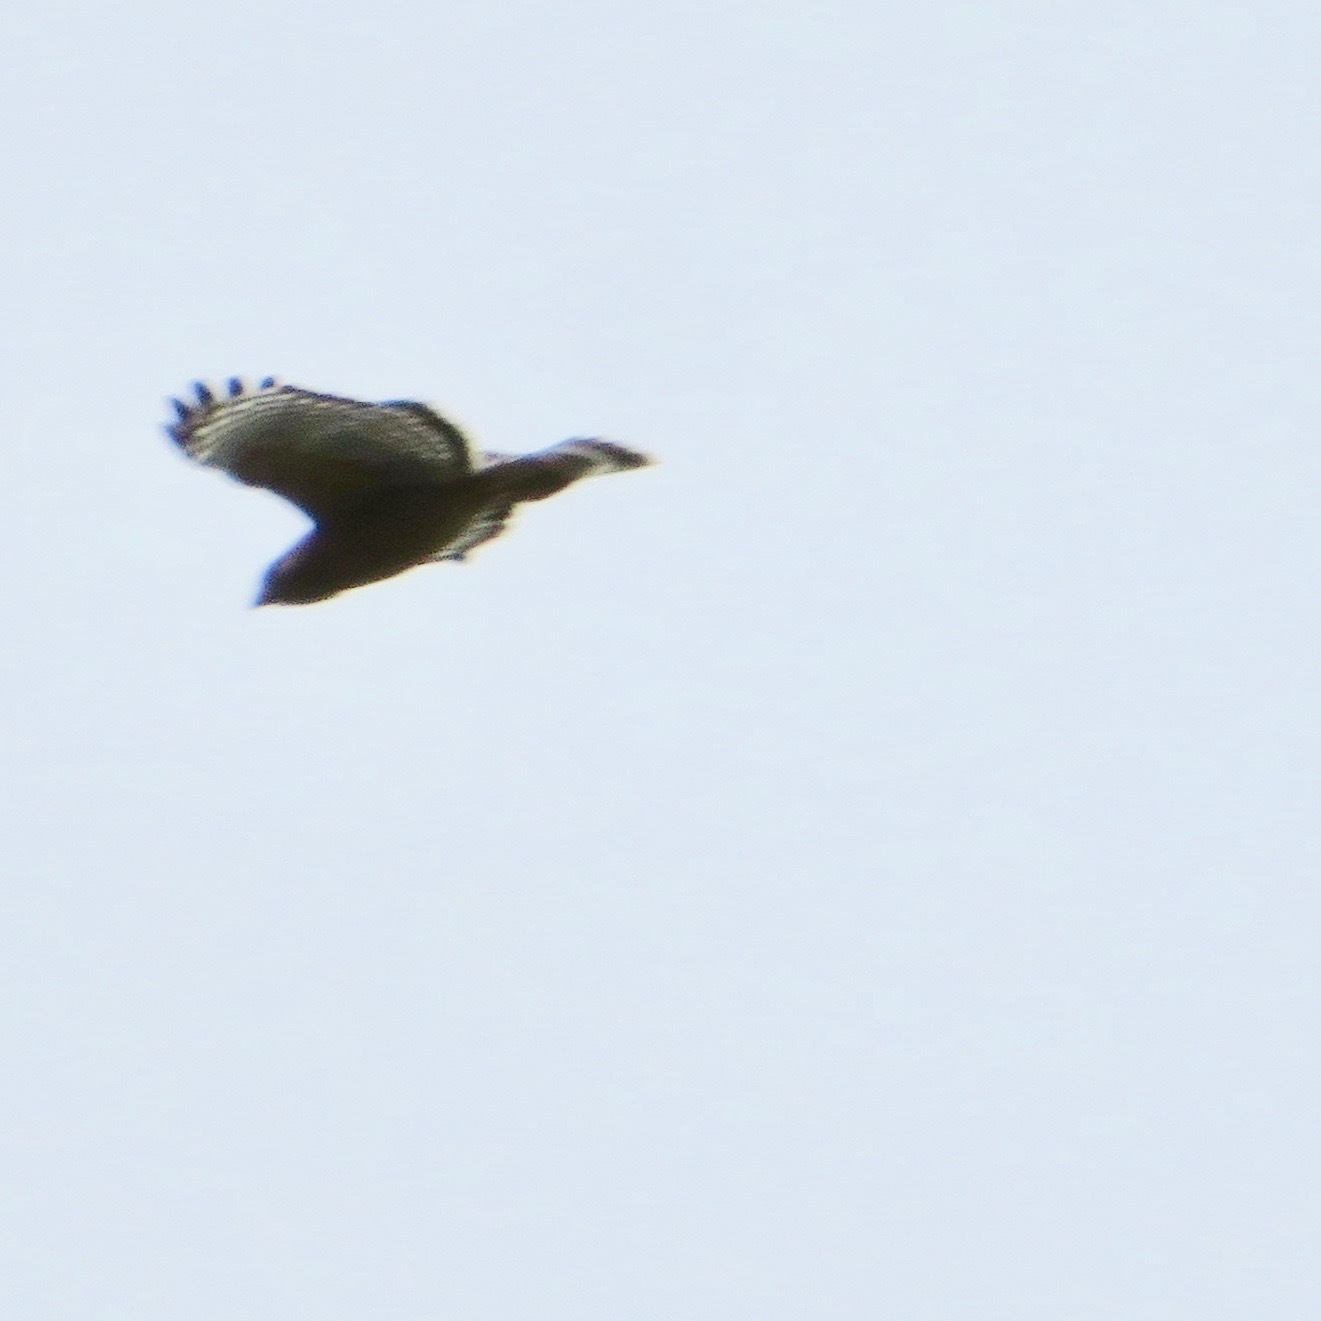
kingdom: Animalia
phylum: Chordata
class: Aves
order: Accipitriformes
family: Accipitridae
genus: Buteo
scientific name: Buteo lineatus
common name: Red-shouldered hawk
